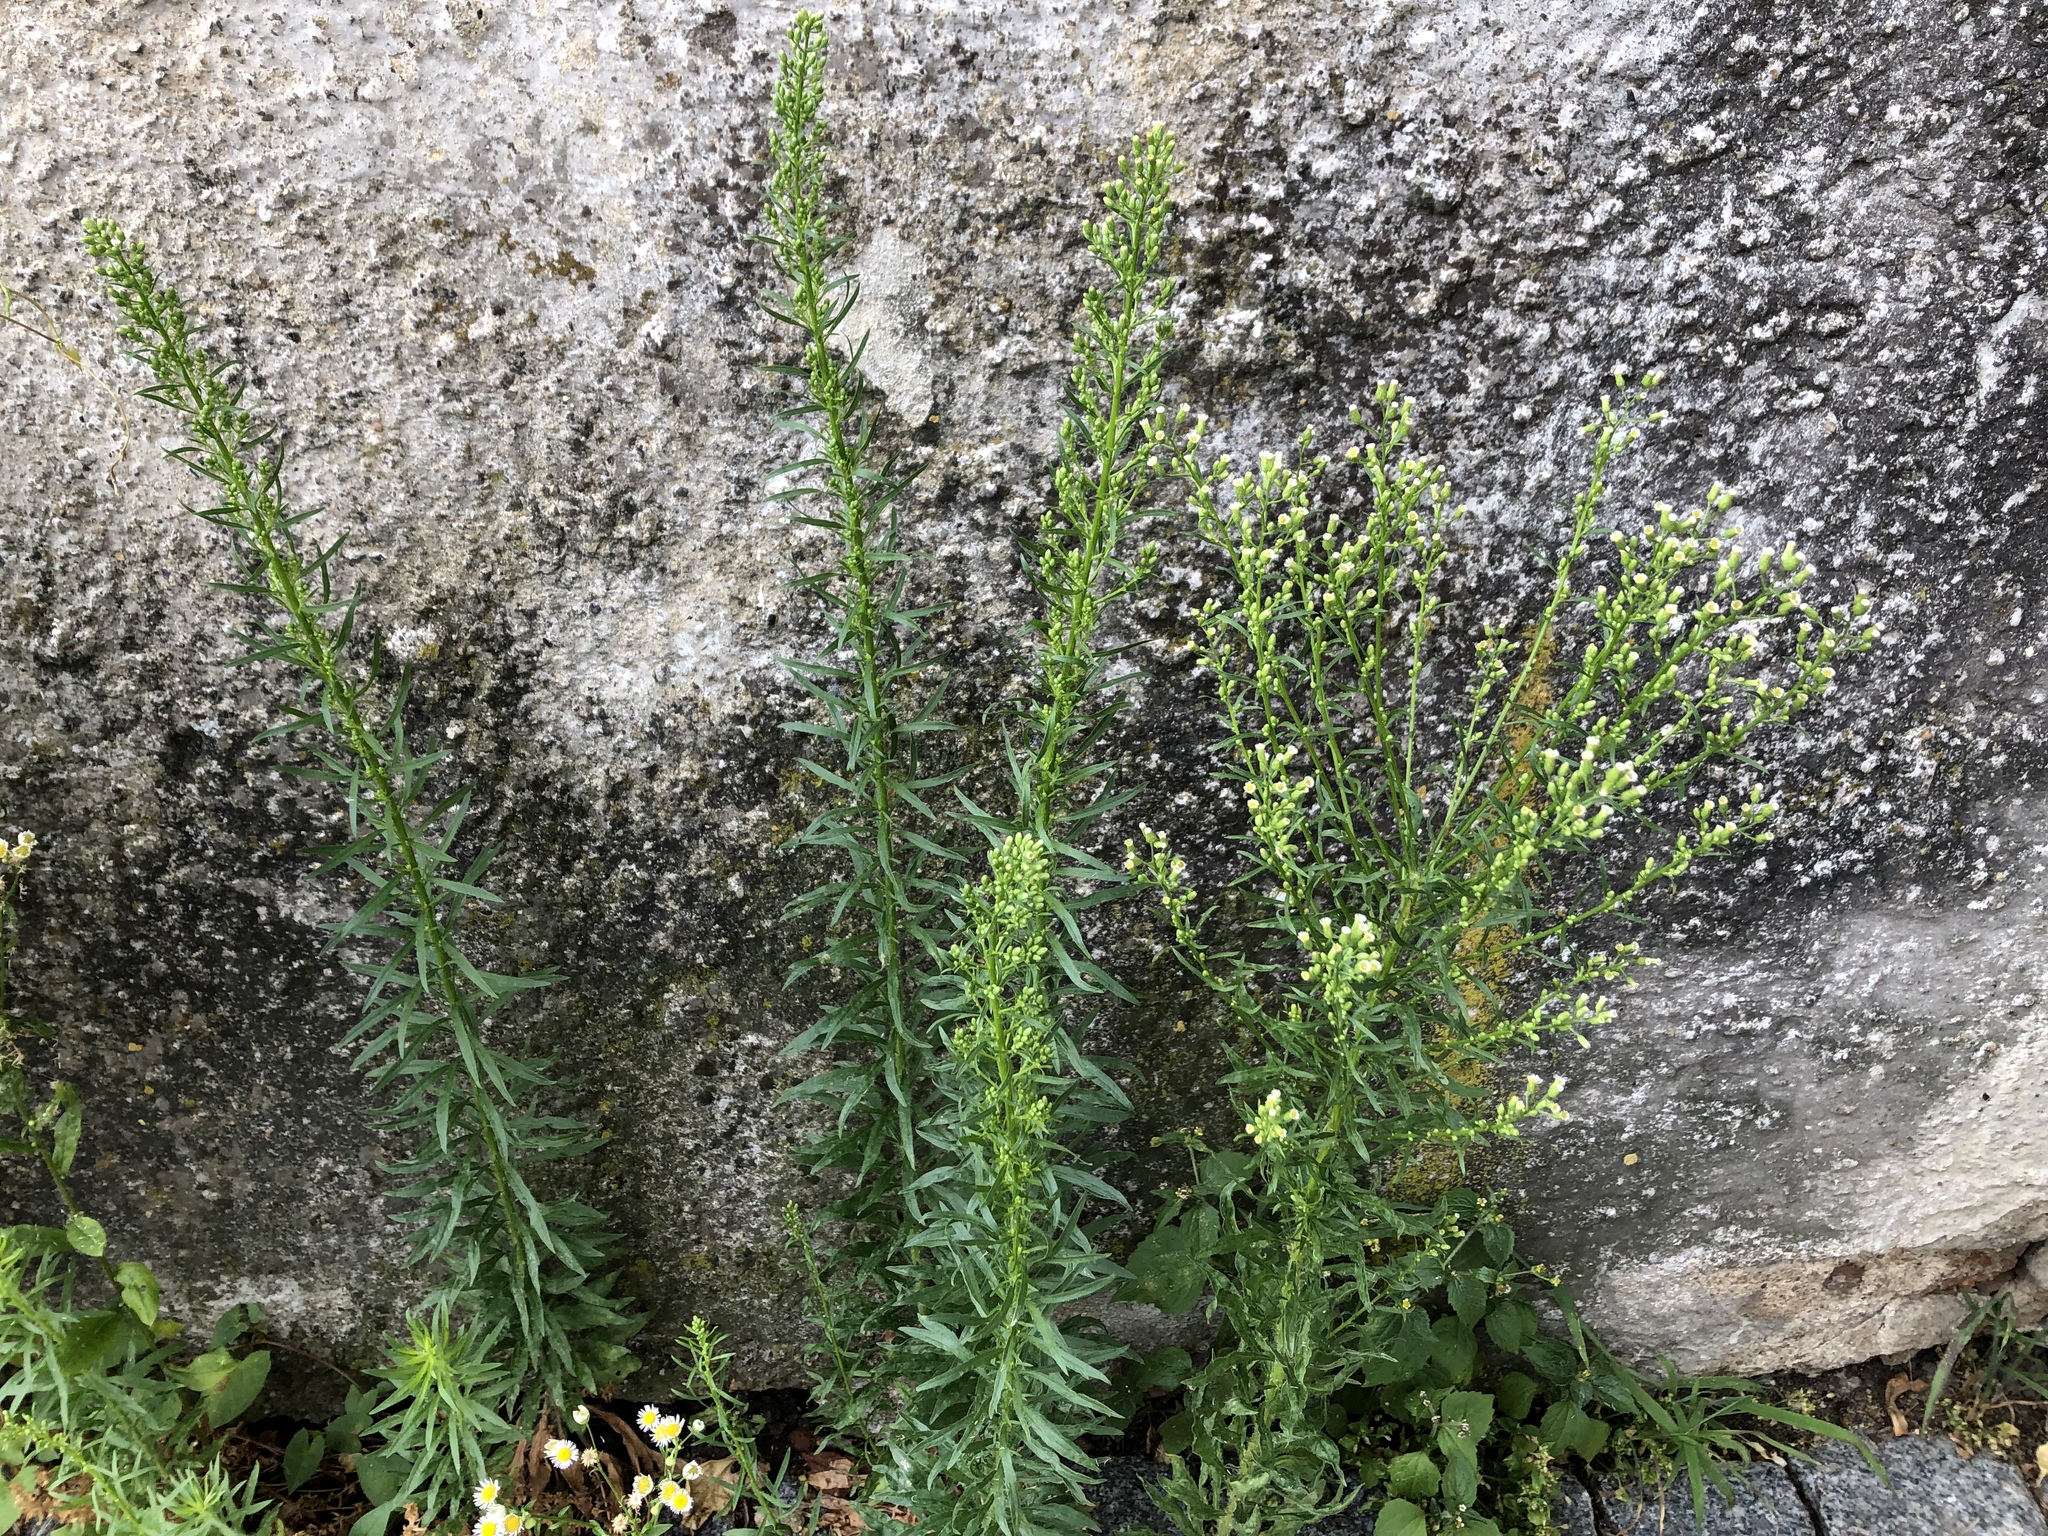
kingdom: Plantae
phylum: Tracheophyta
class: Magnoliopsida
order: Asterales
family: Asteraceae
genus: Erigeron
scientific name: Erigeron canadensis
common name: Canadian fleabane
